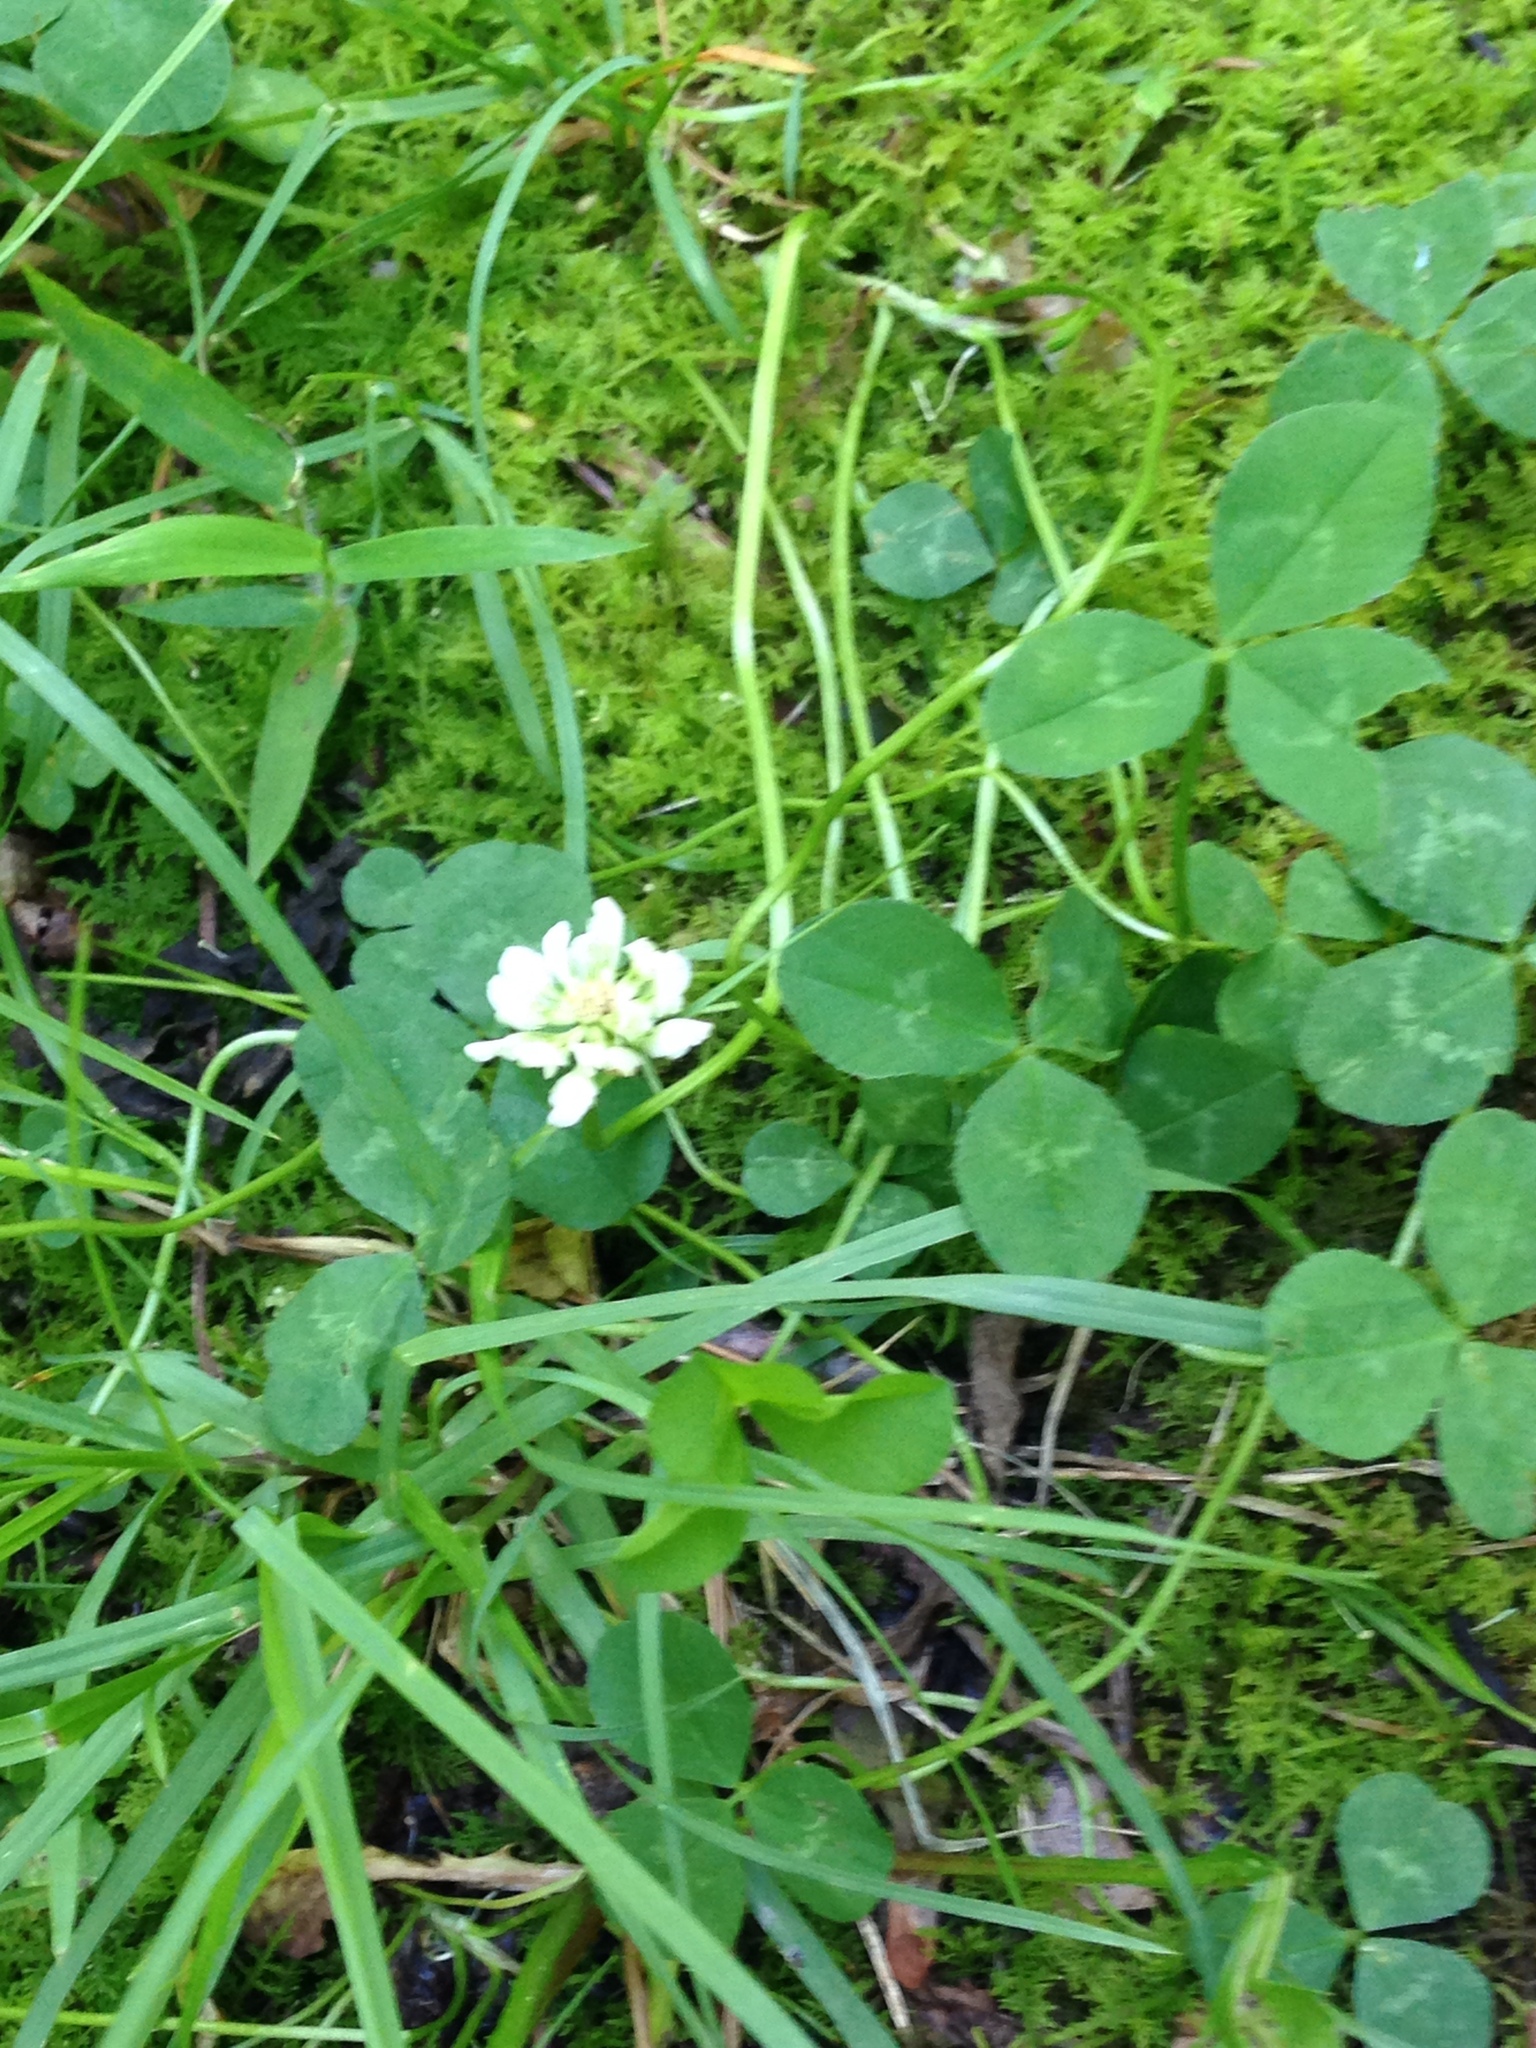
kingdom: Plantae
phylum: Tracheophyta
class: Magnoliopsida
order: Fabales
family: Fabaceae
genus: Trifolium
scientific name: Trifolium repens
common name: White clover
